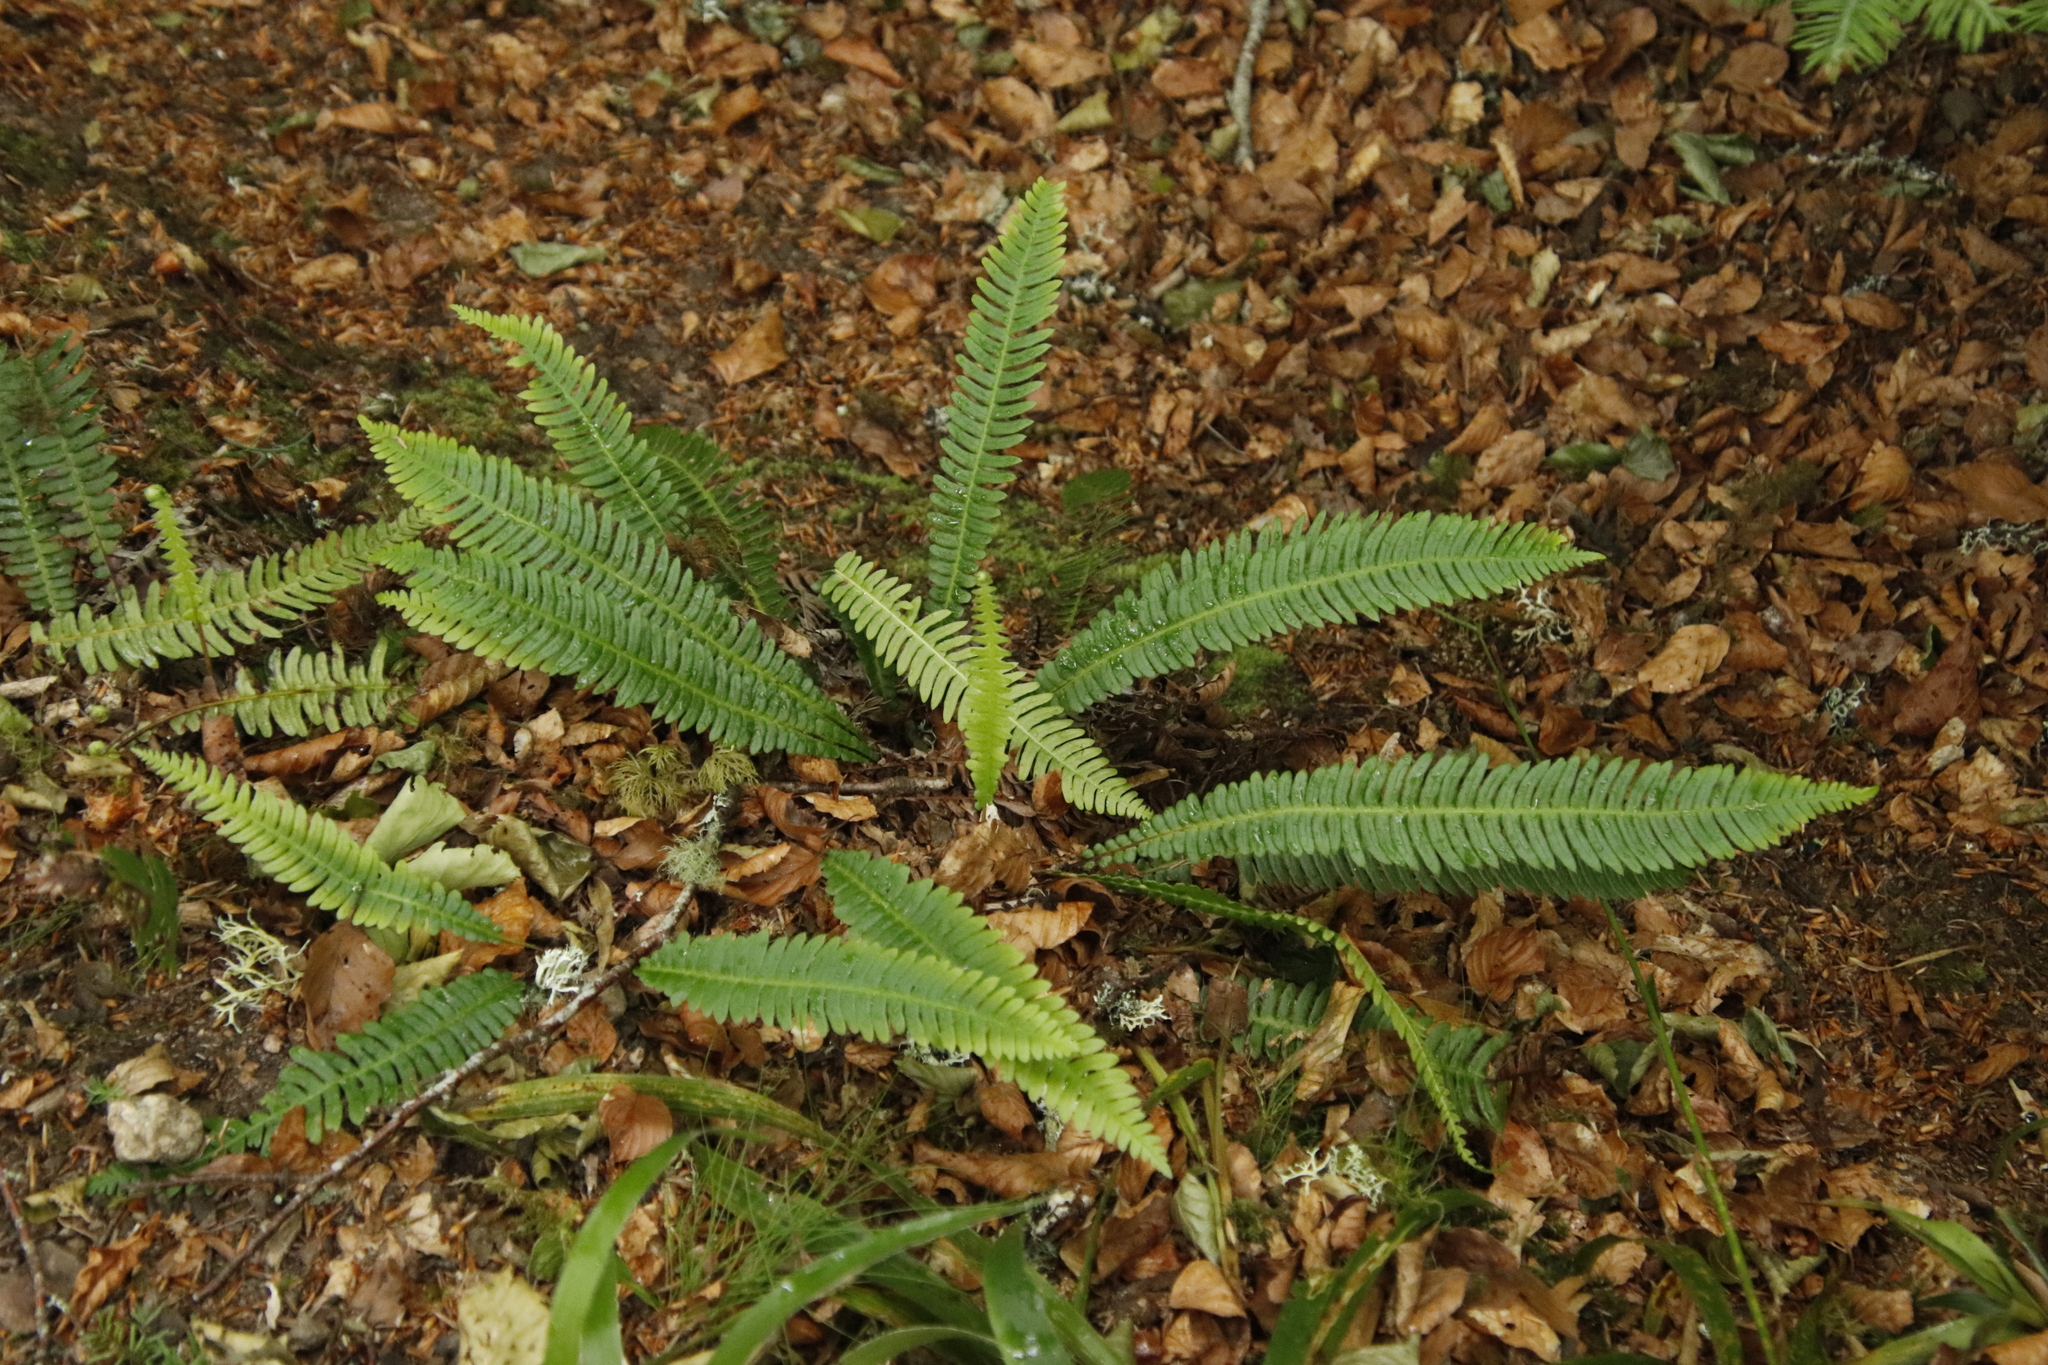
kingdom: Plantae
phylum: Tracheophyta
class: Polypodiopsida
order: Polypodiales
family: Blechnaceae
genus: Struthiopteris
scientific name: Struthiopteris spicant
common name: Deer fern
